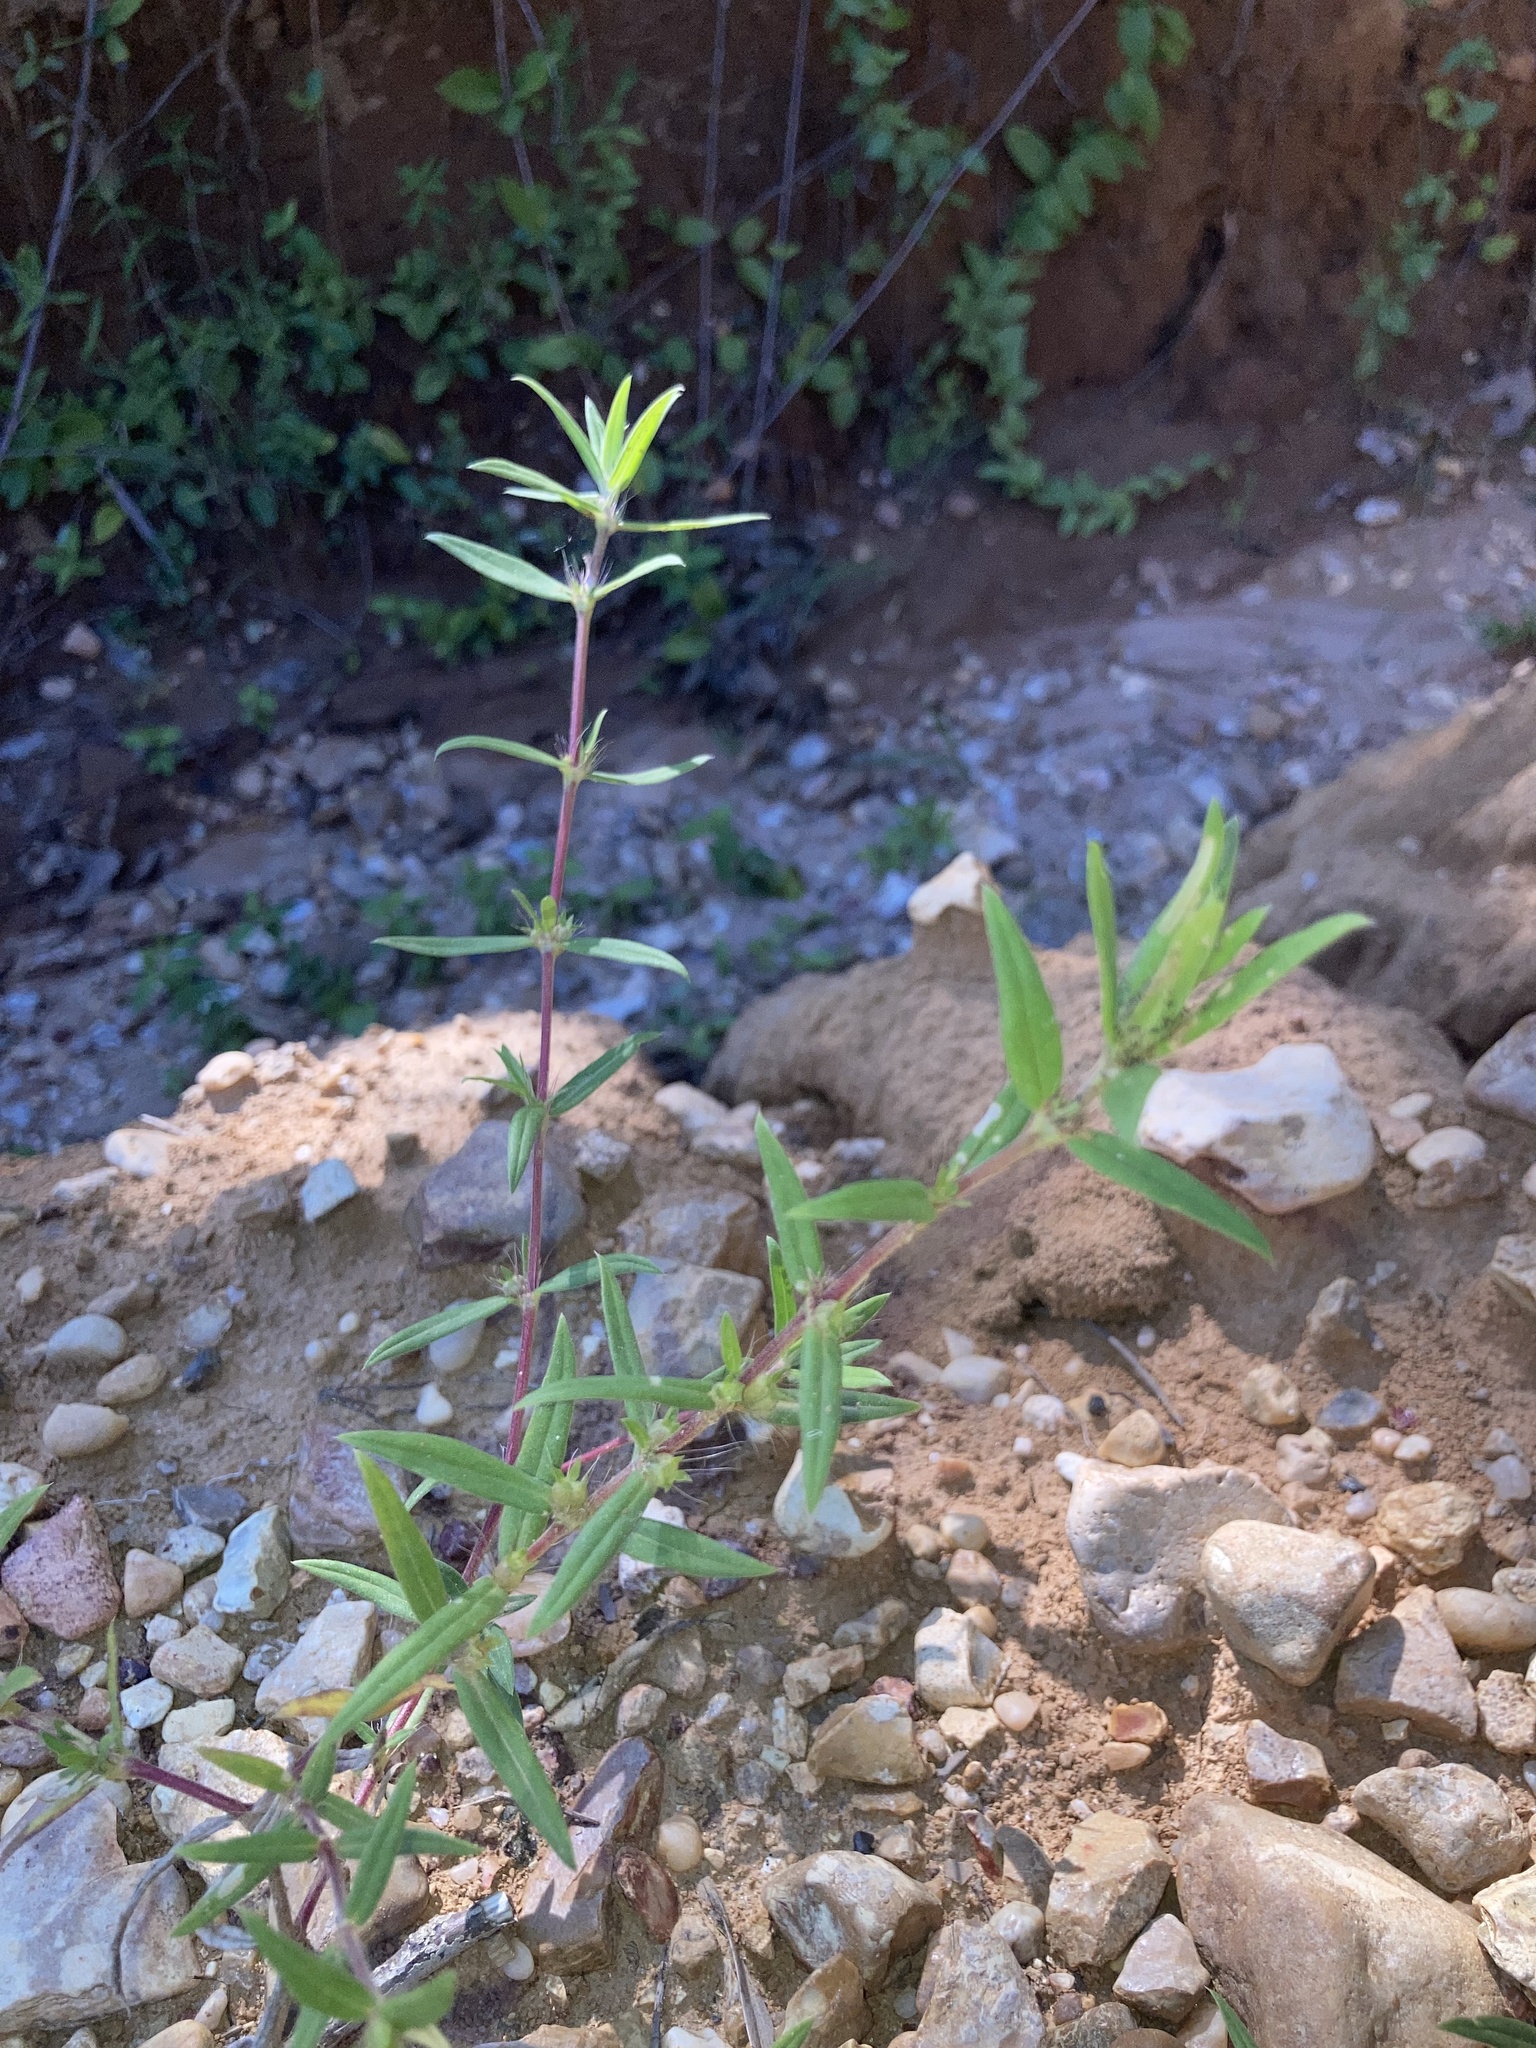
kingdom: Plantae
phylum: Tracheophyta
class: Magnoliopsida
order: Gentianales
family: Rubiaceae
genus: Hexasepalum
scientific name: Hexasepalum teres
